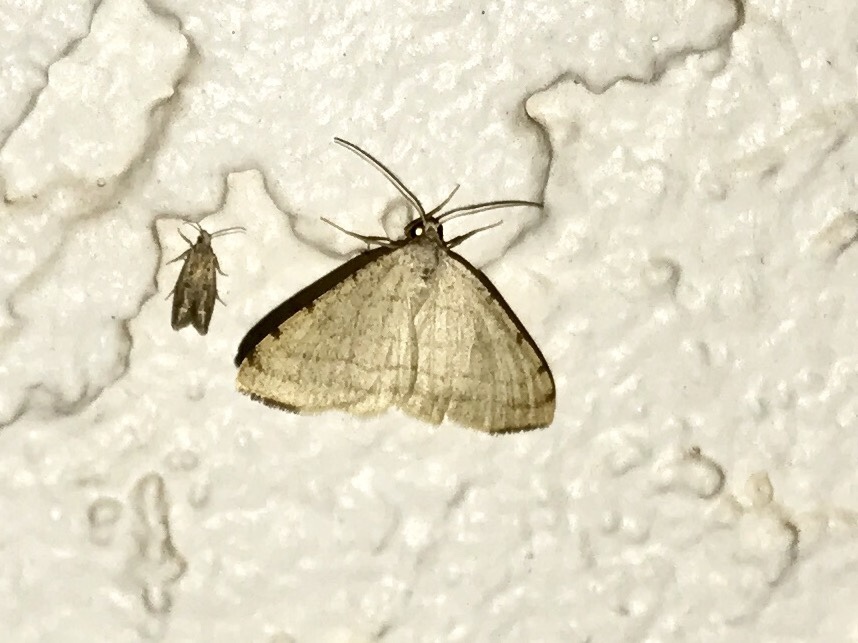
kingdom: Animalia
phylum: Arthropoda
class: Insecta
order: Lepidoptera
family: Geometridae
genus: Macaria
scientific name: Macaria octolineata
